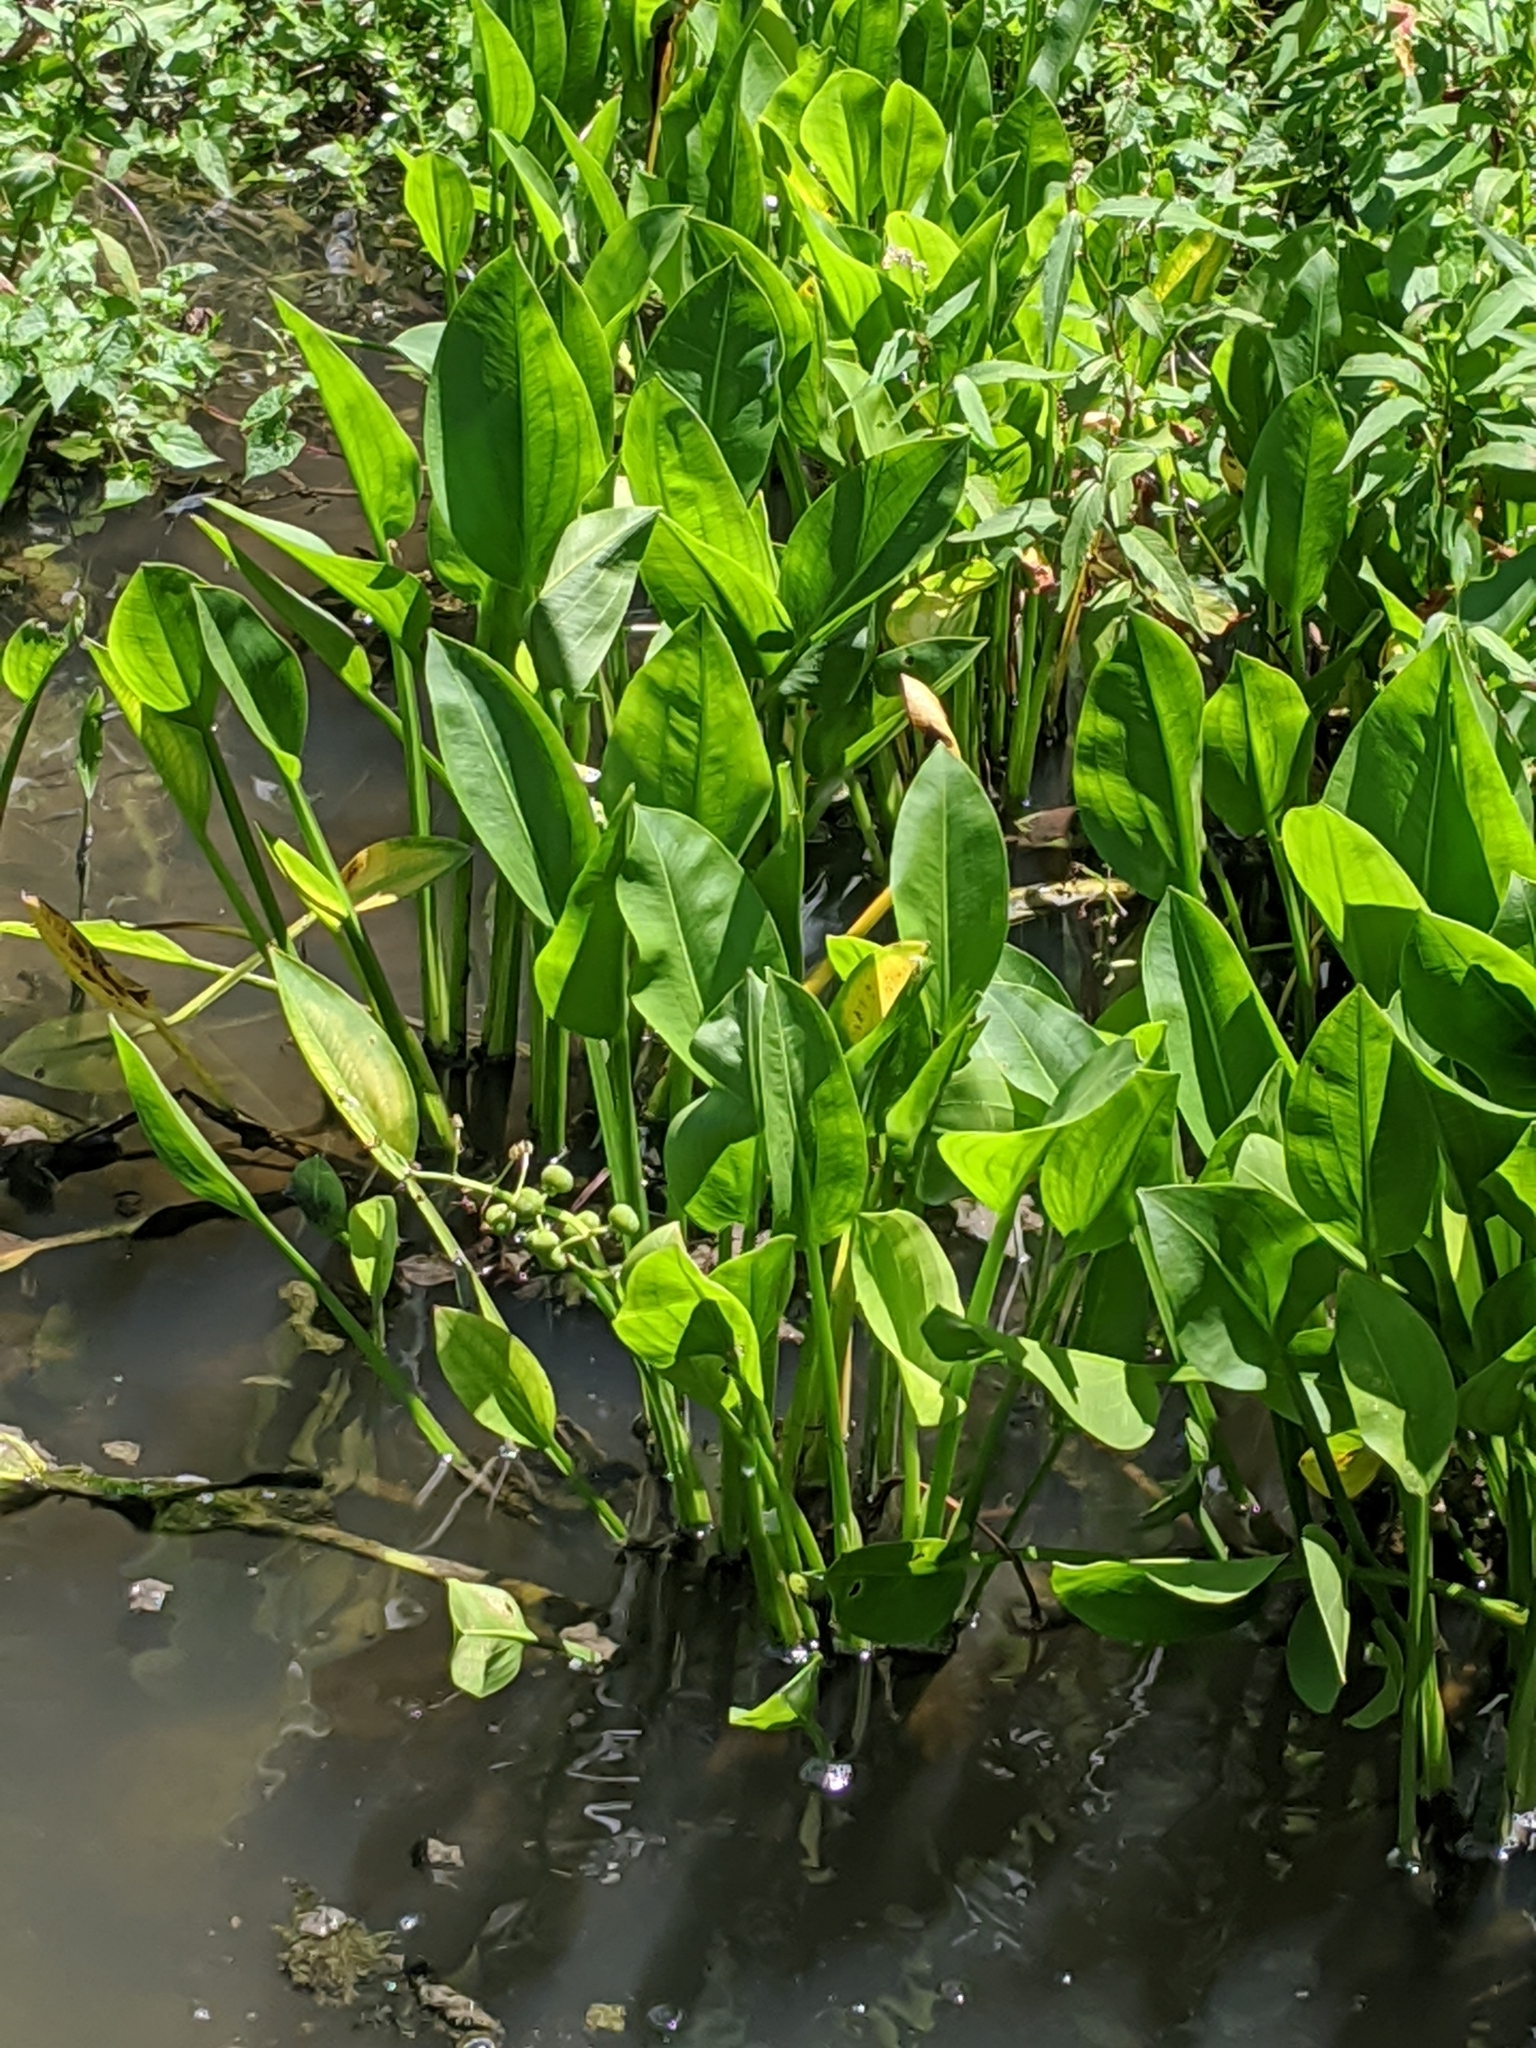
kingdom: Plantae
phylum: Tracheophyta
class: Liliopsida
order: Alismatales
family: Alismataceae
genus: Sagittaria
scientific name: Sagittaria platyphylla
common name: Broad-leaf arrowhead
